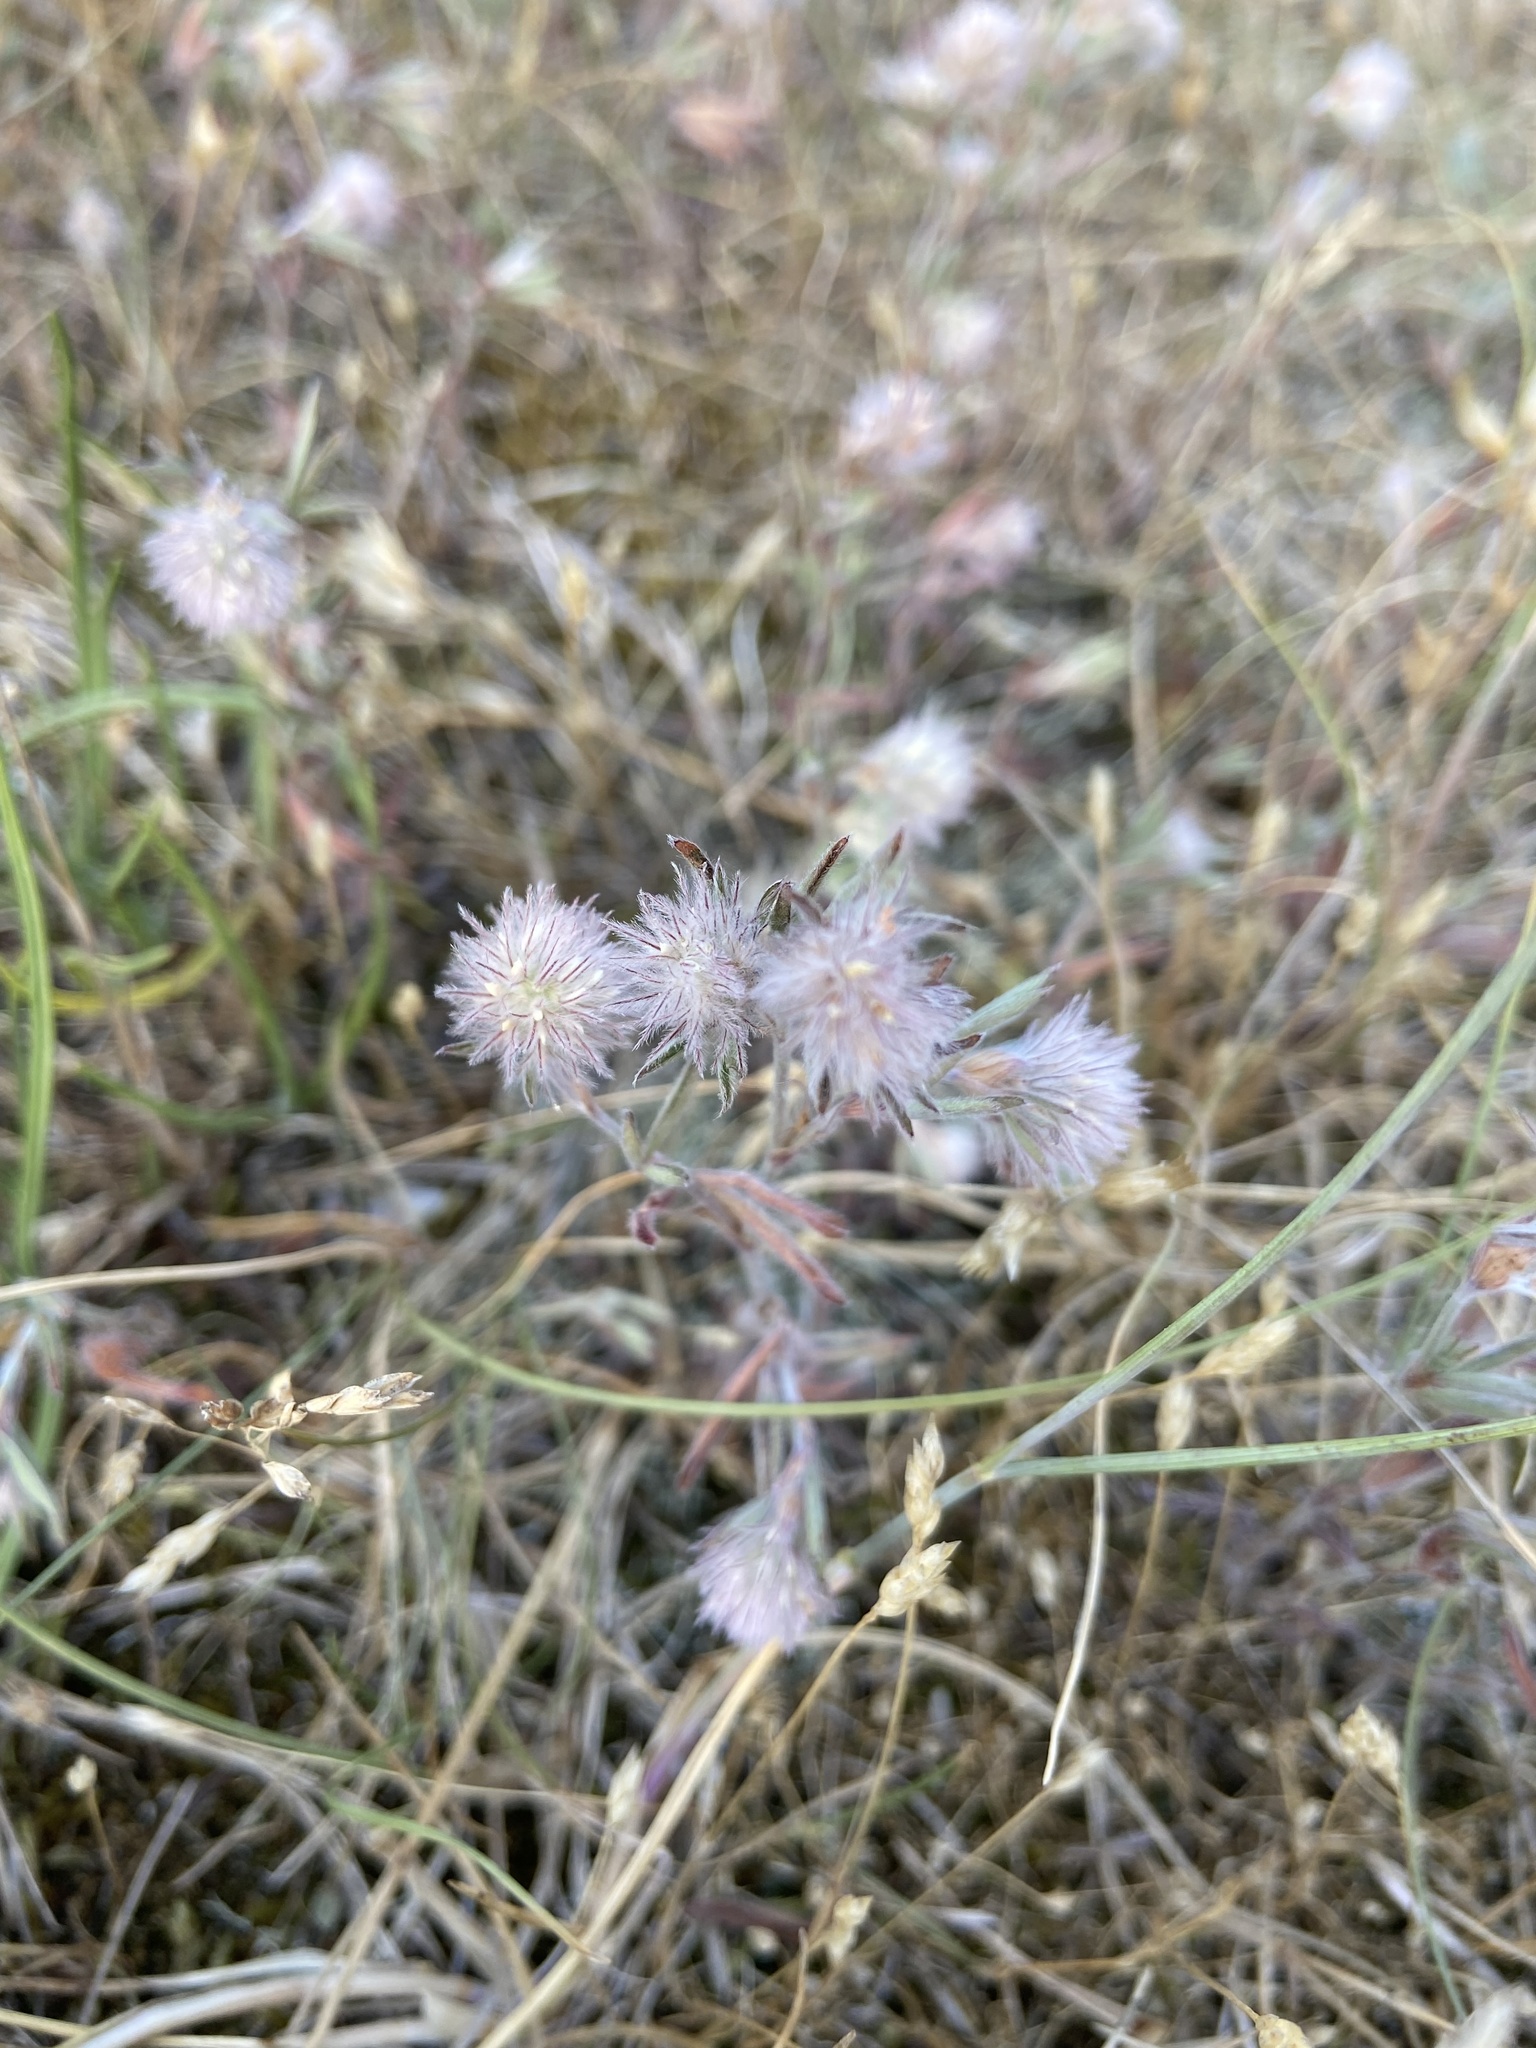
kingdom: Plantae
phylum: Tracheophyta
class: Magnoliopsida
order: Fabales
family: Fabaceae
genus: Trifolium
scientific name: Trifolium arvense
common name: Hare's-foot clover
